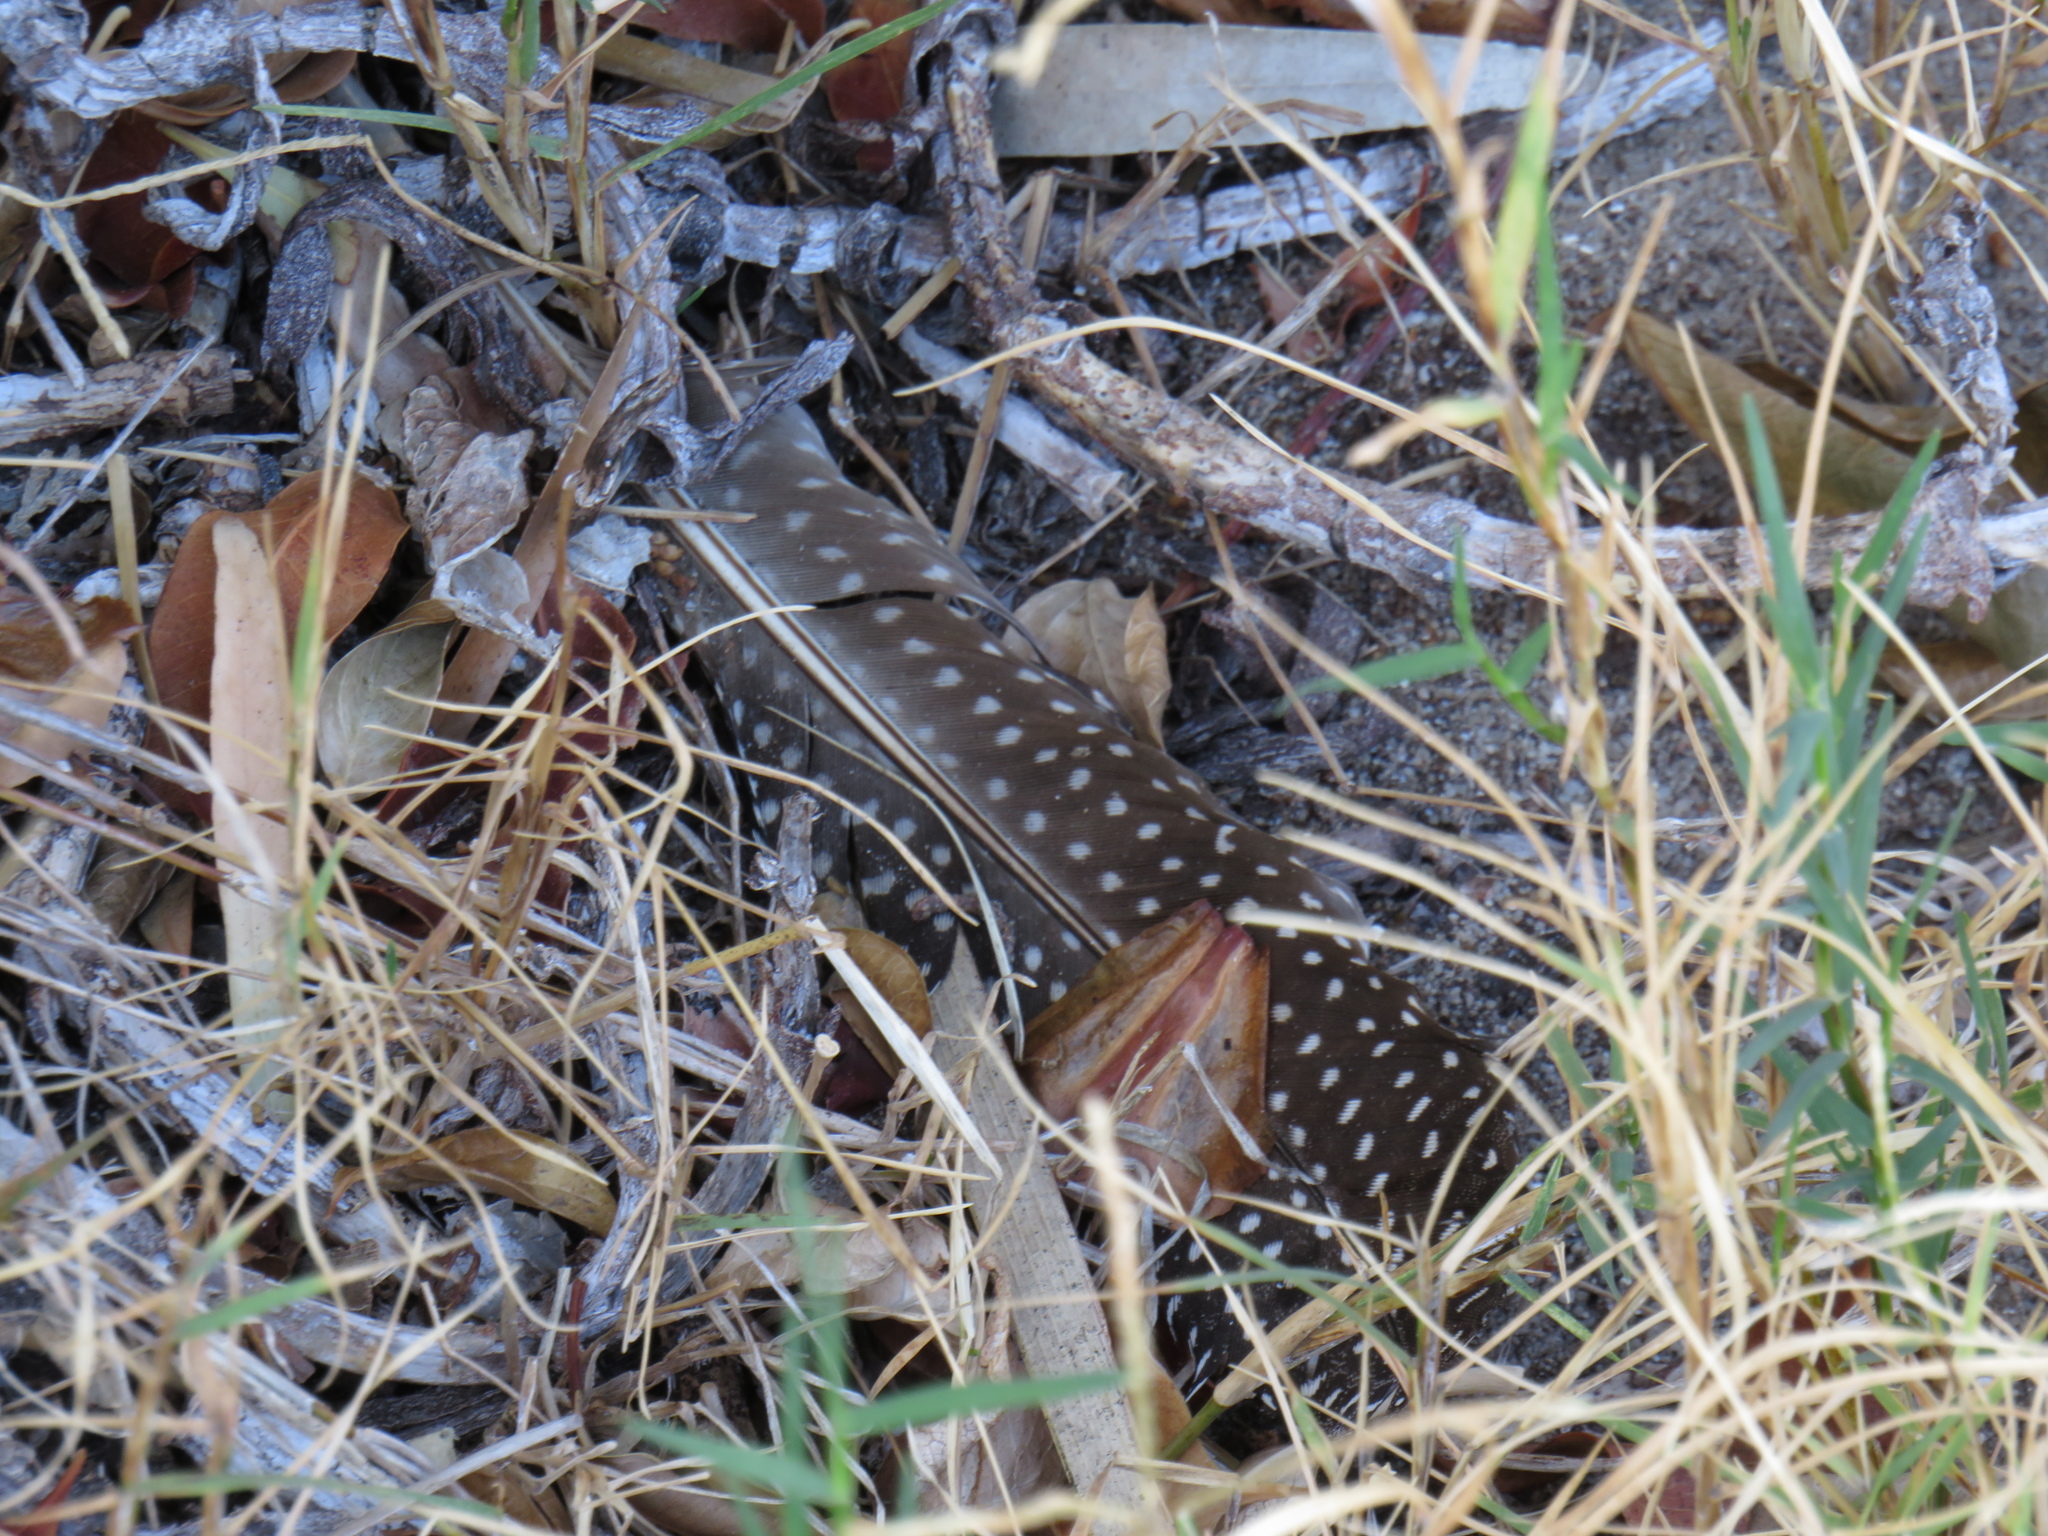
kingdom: Animalia
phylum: Chordata
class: Aves
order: Galliformes
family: Numididae
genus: Numida
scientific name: Numida meleagris
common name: Helmeted guineafowl
